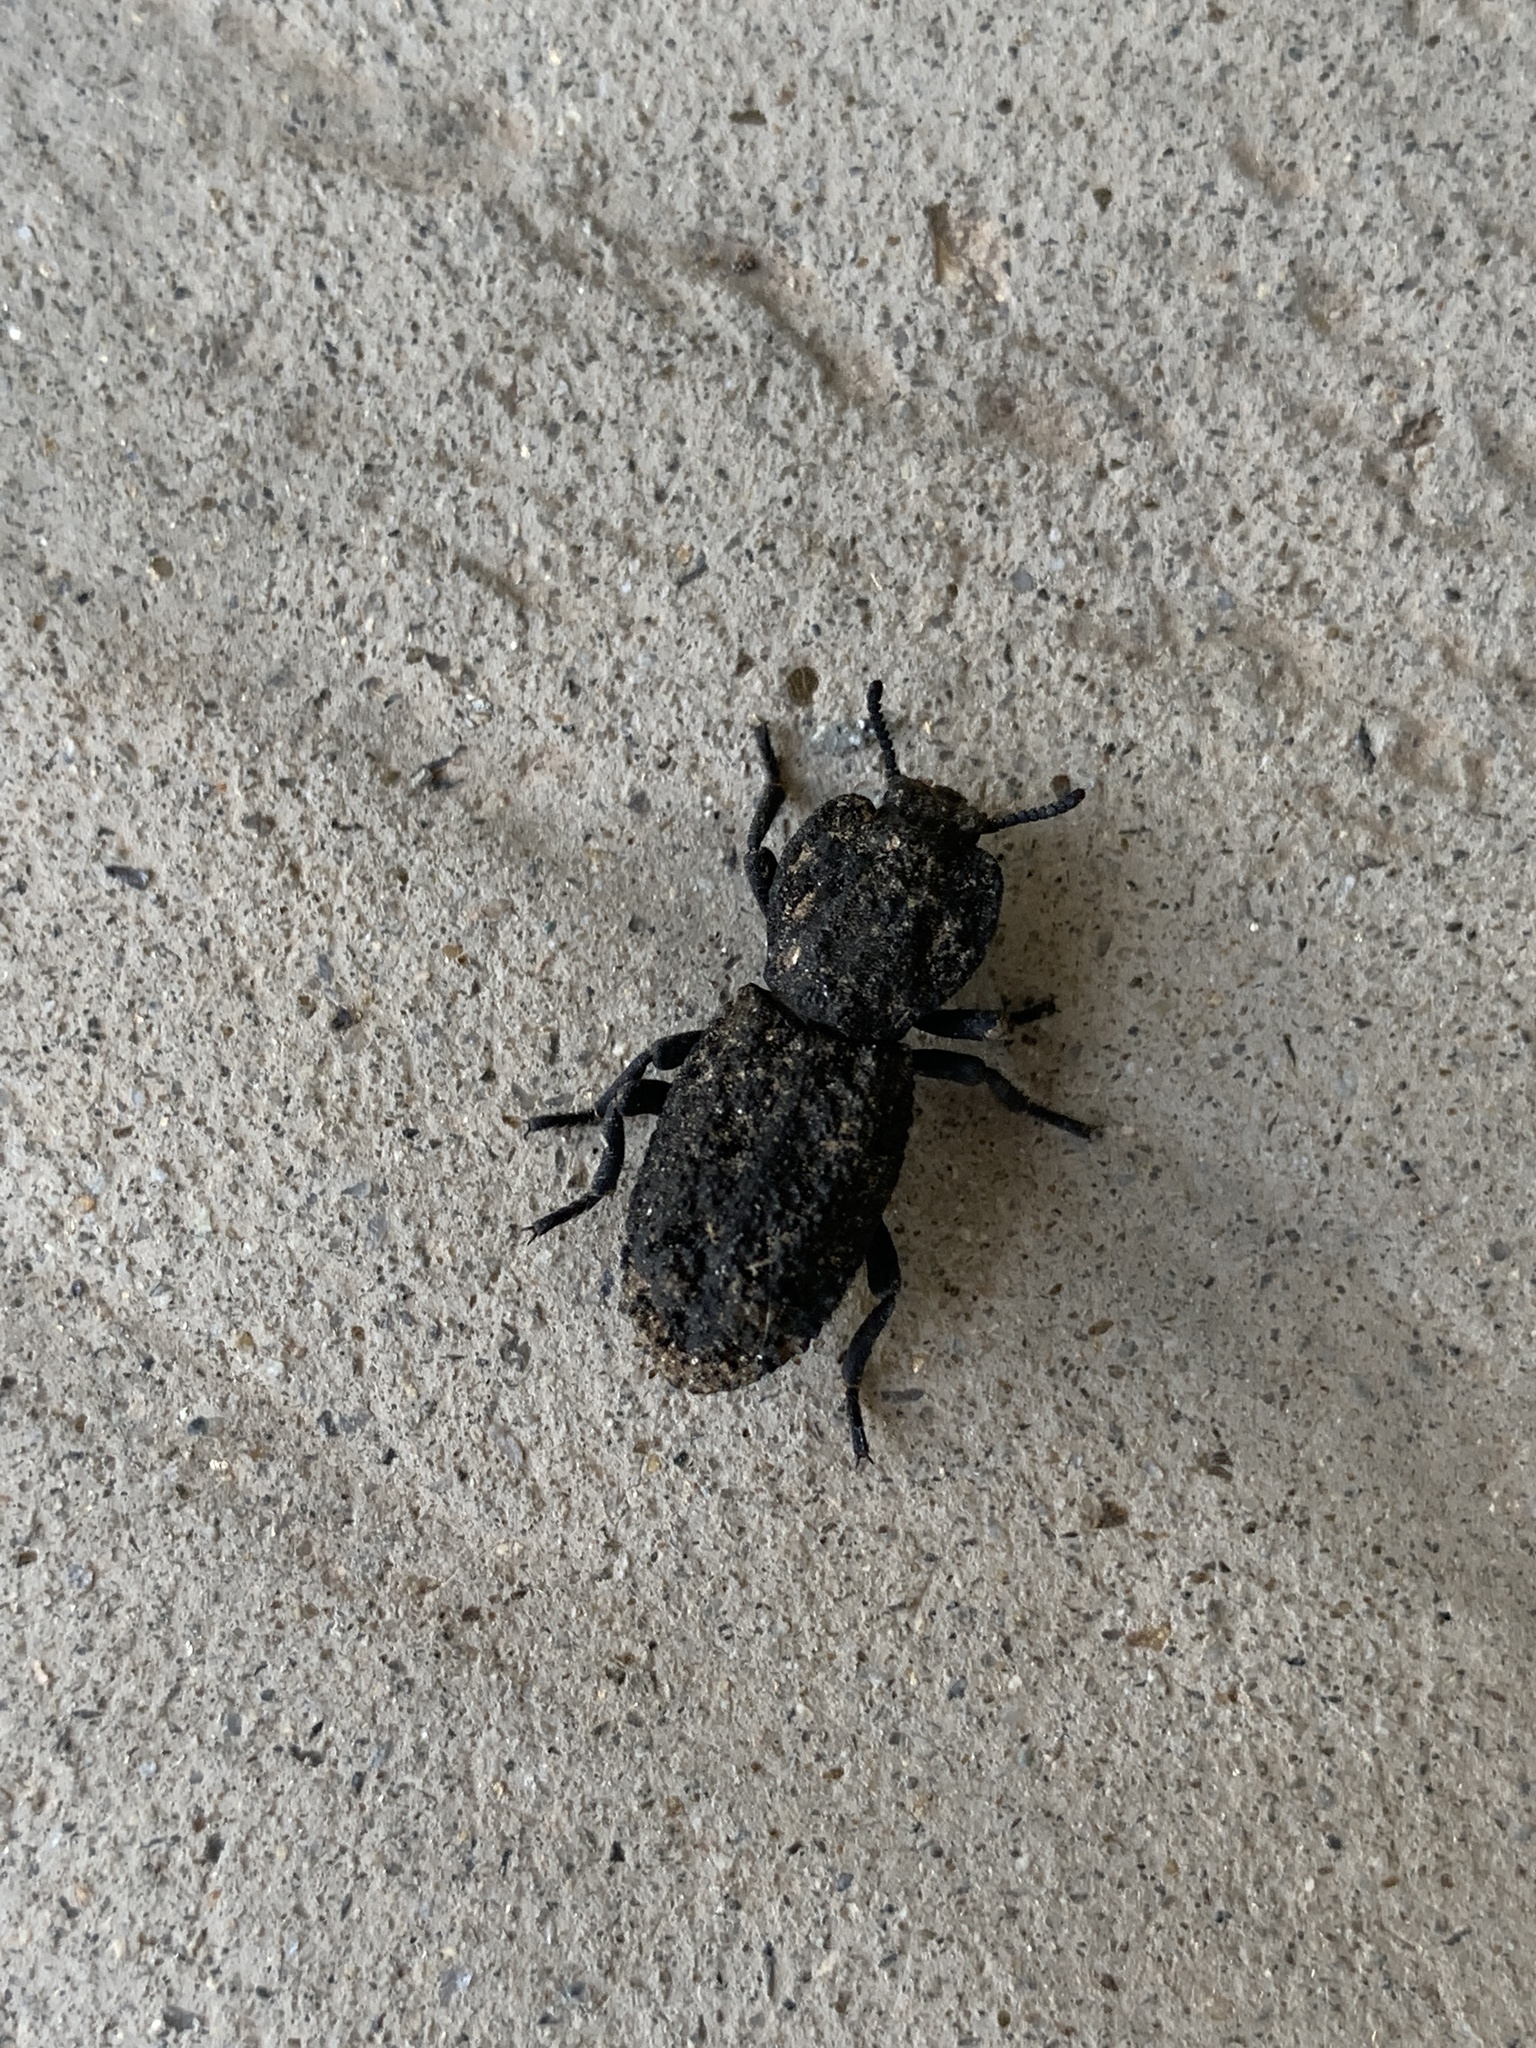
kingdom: Animalia
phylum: Arthropoda
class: Insecta
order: Coleoptera
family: Zopheridae
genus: Phloeodes
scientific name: Phloeodes diabolicus
